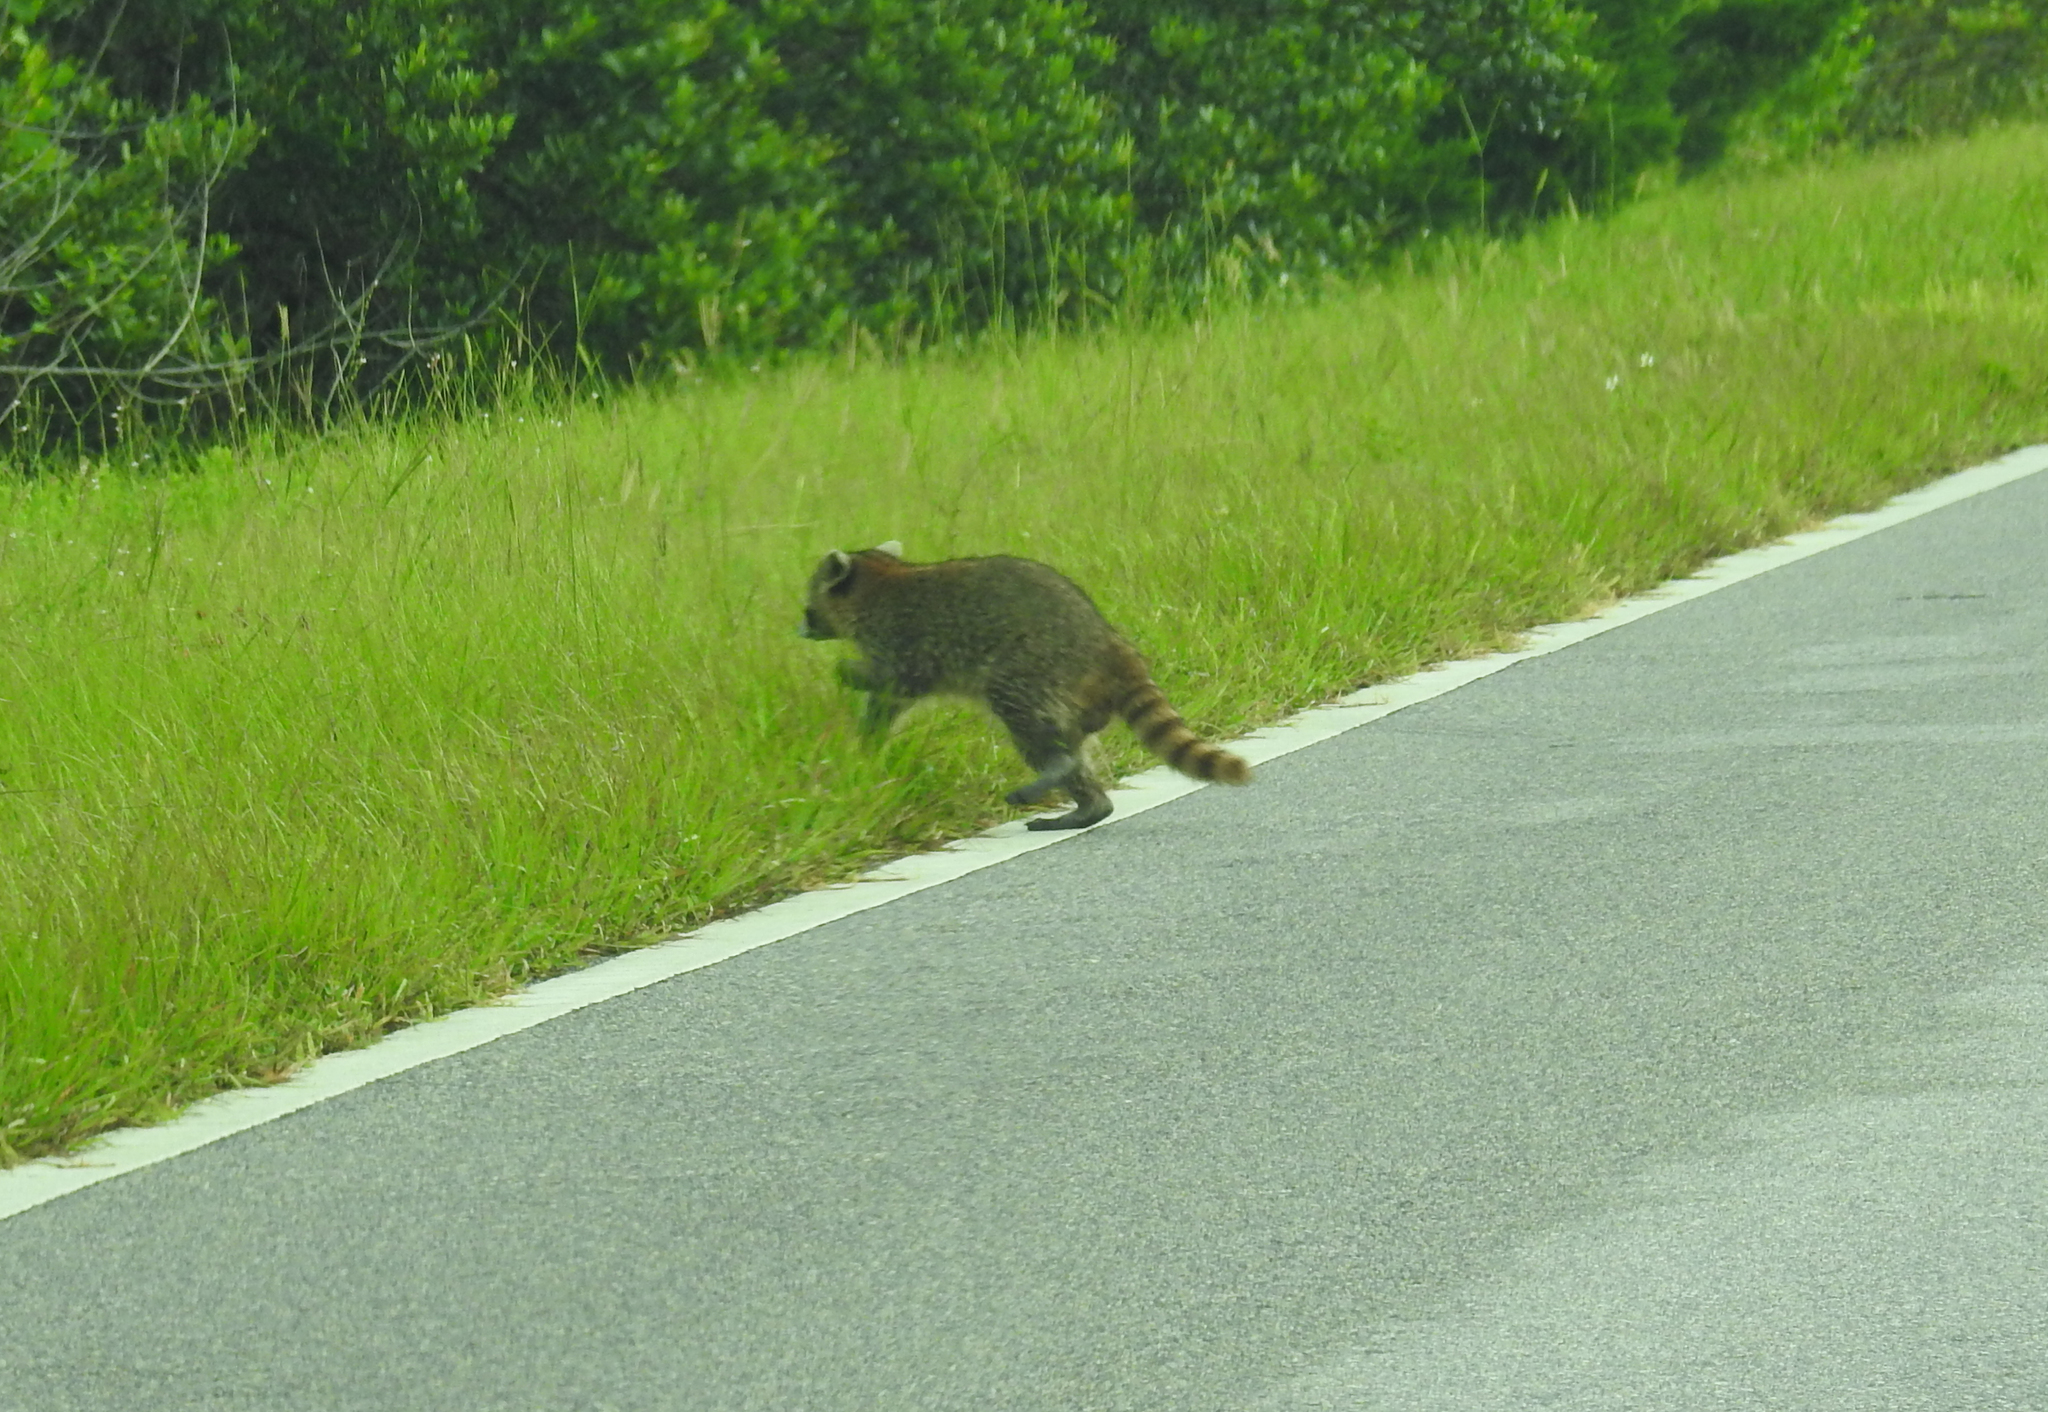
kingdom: Animalia
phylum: Chordata
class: Mammalia
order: Carnivora
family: Procyonidae
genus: Procyon
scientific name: Procyon lotor
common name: Raccoon
